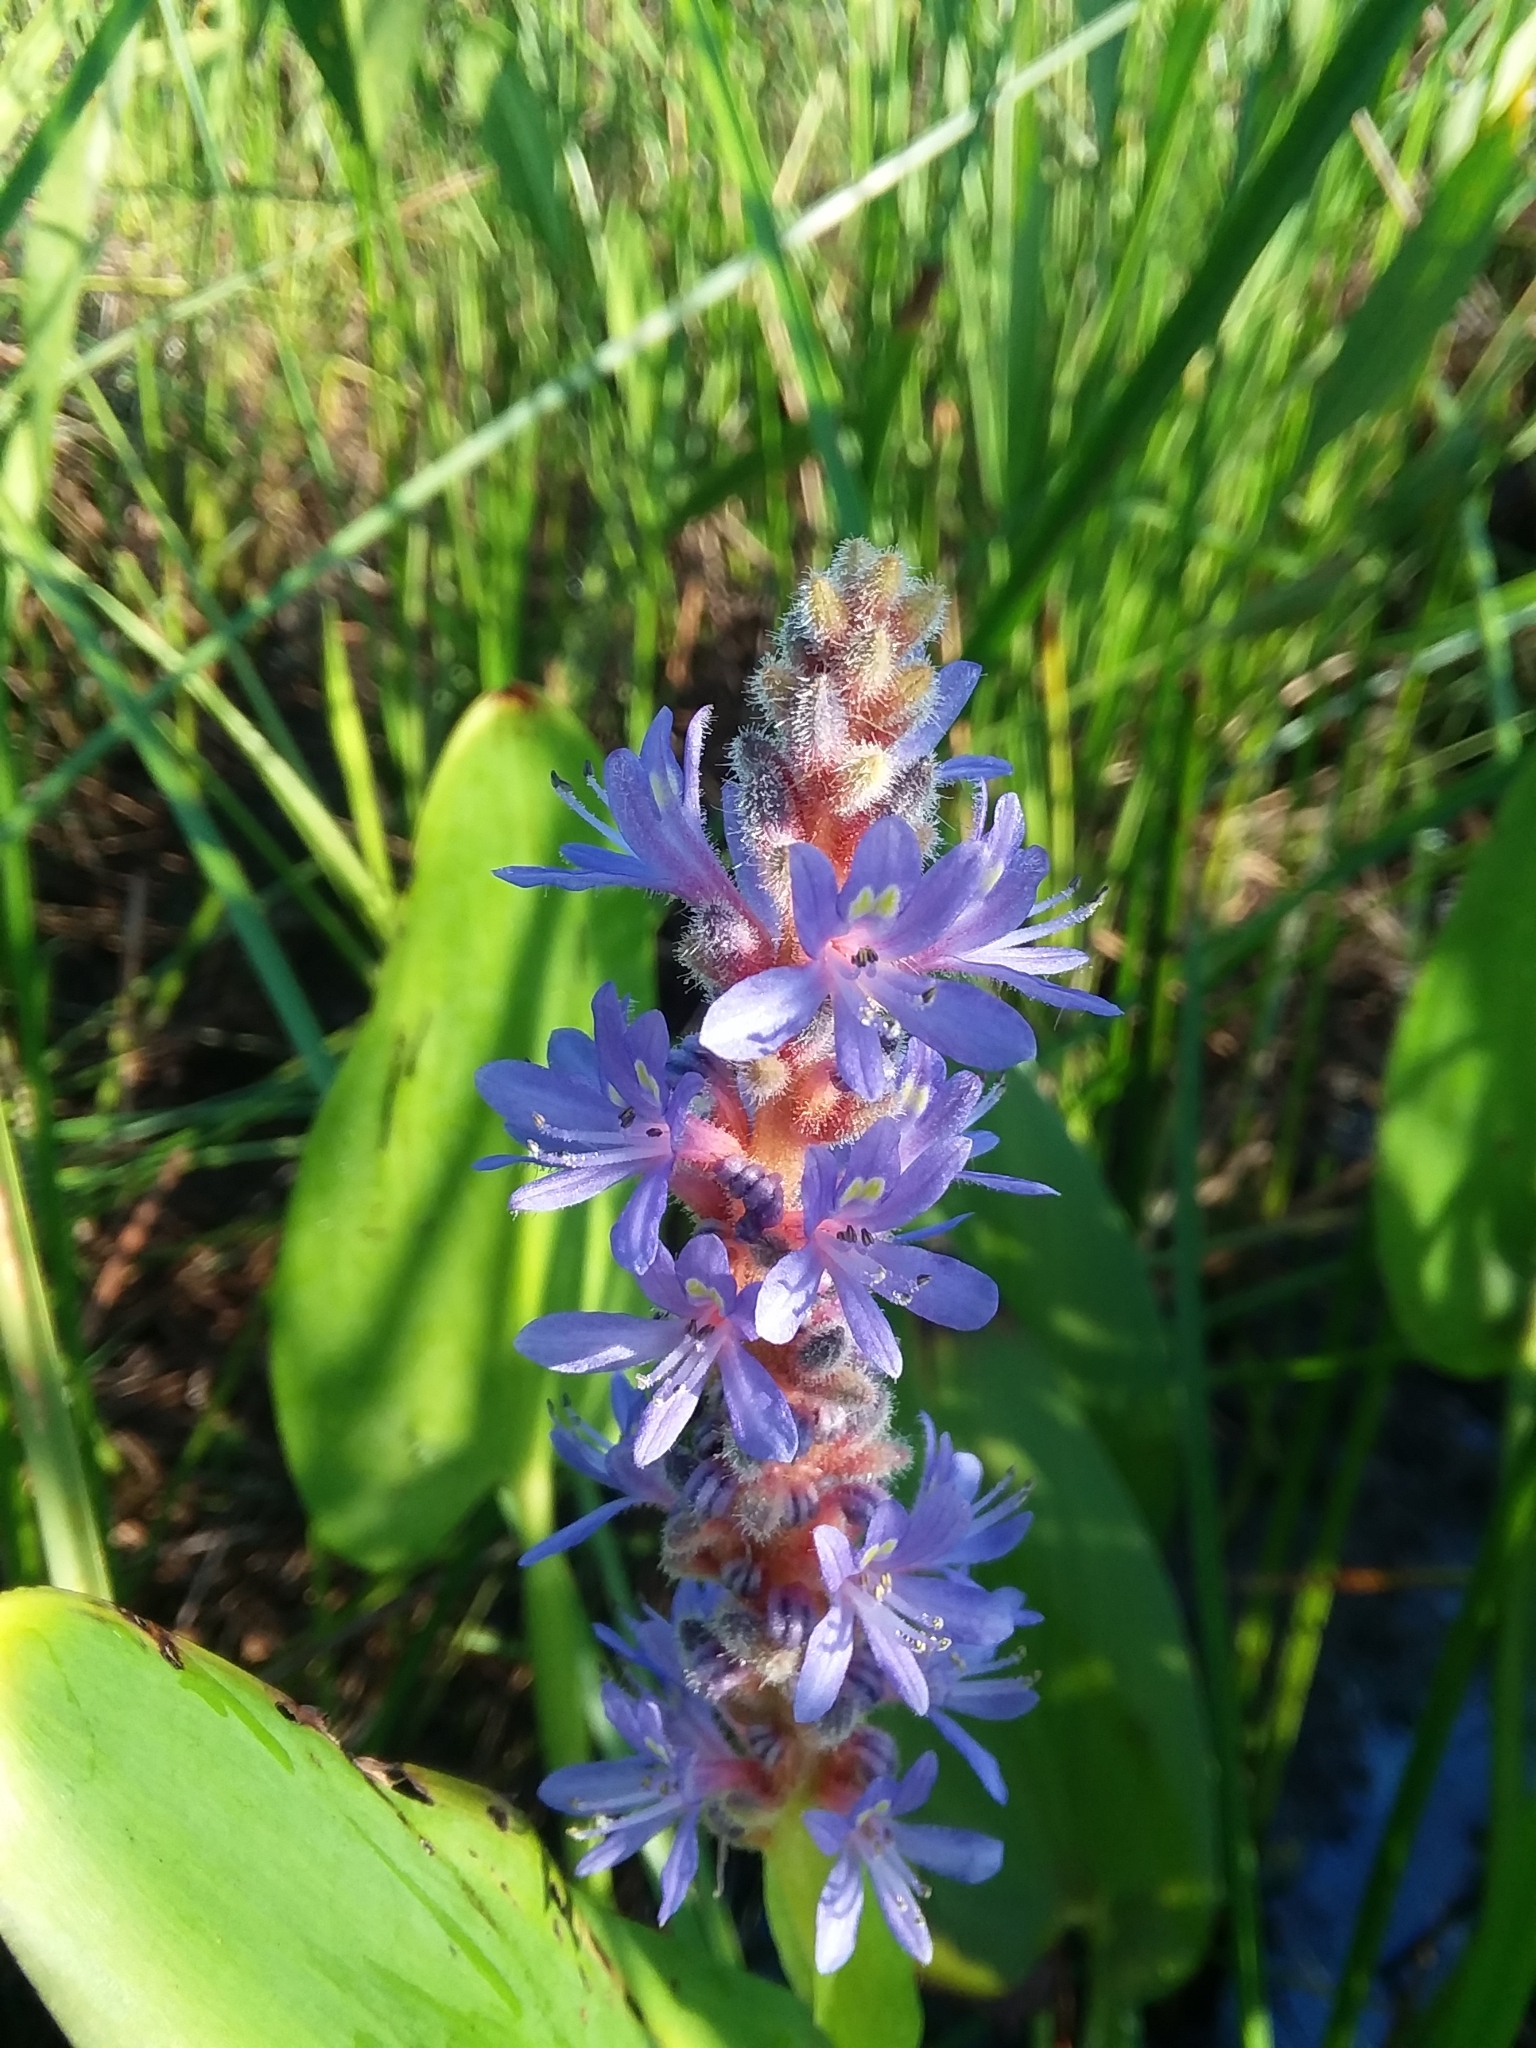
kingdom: Plantae
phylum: Tracheophyta
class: Liliopsida
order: Commelinales
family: Pontederiaceae
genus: Pontederia
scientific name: Pontederia cordata
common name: Pickerelweed
